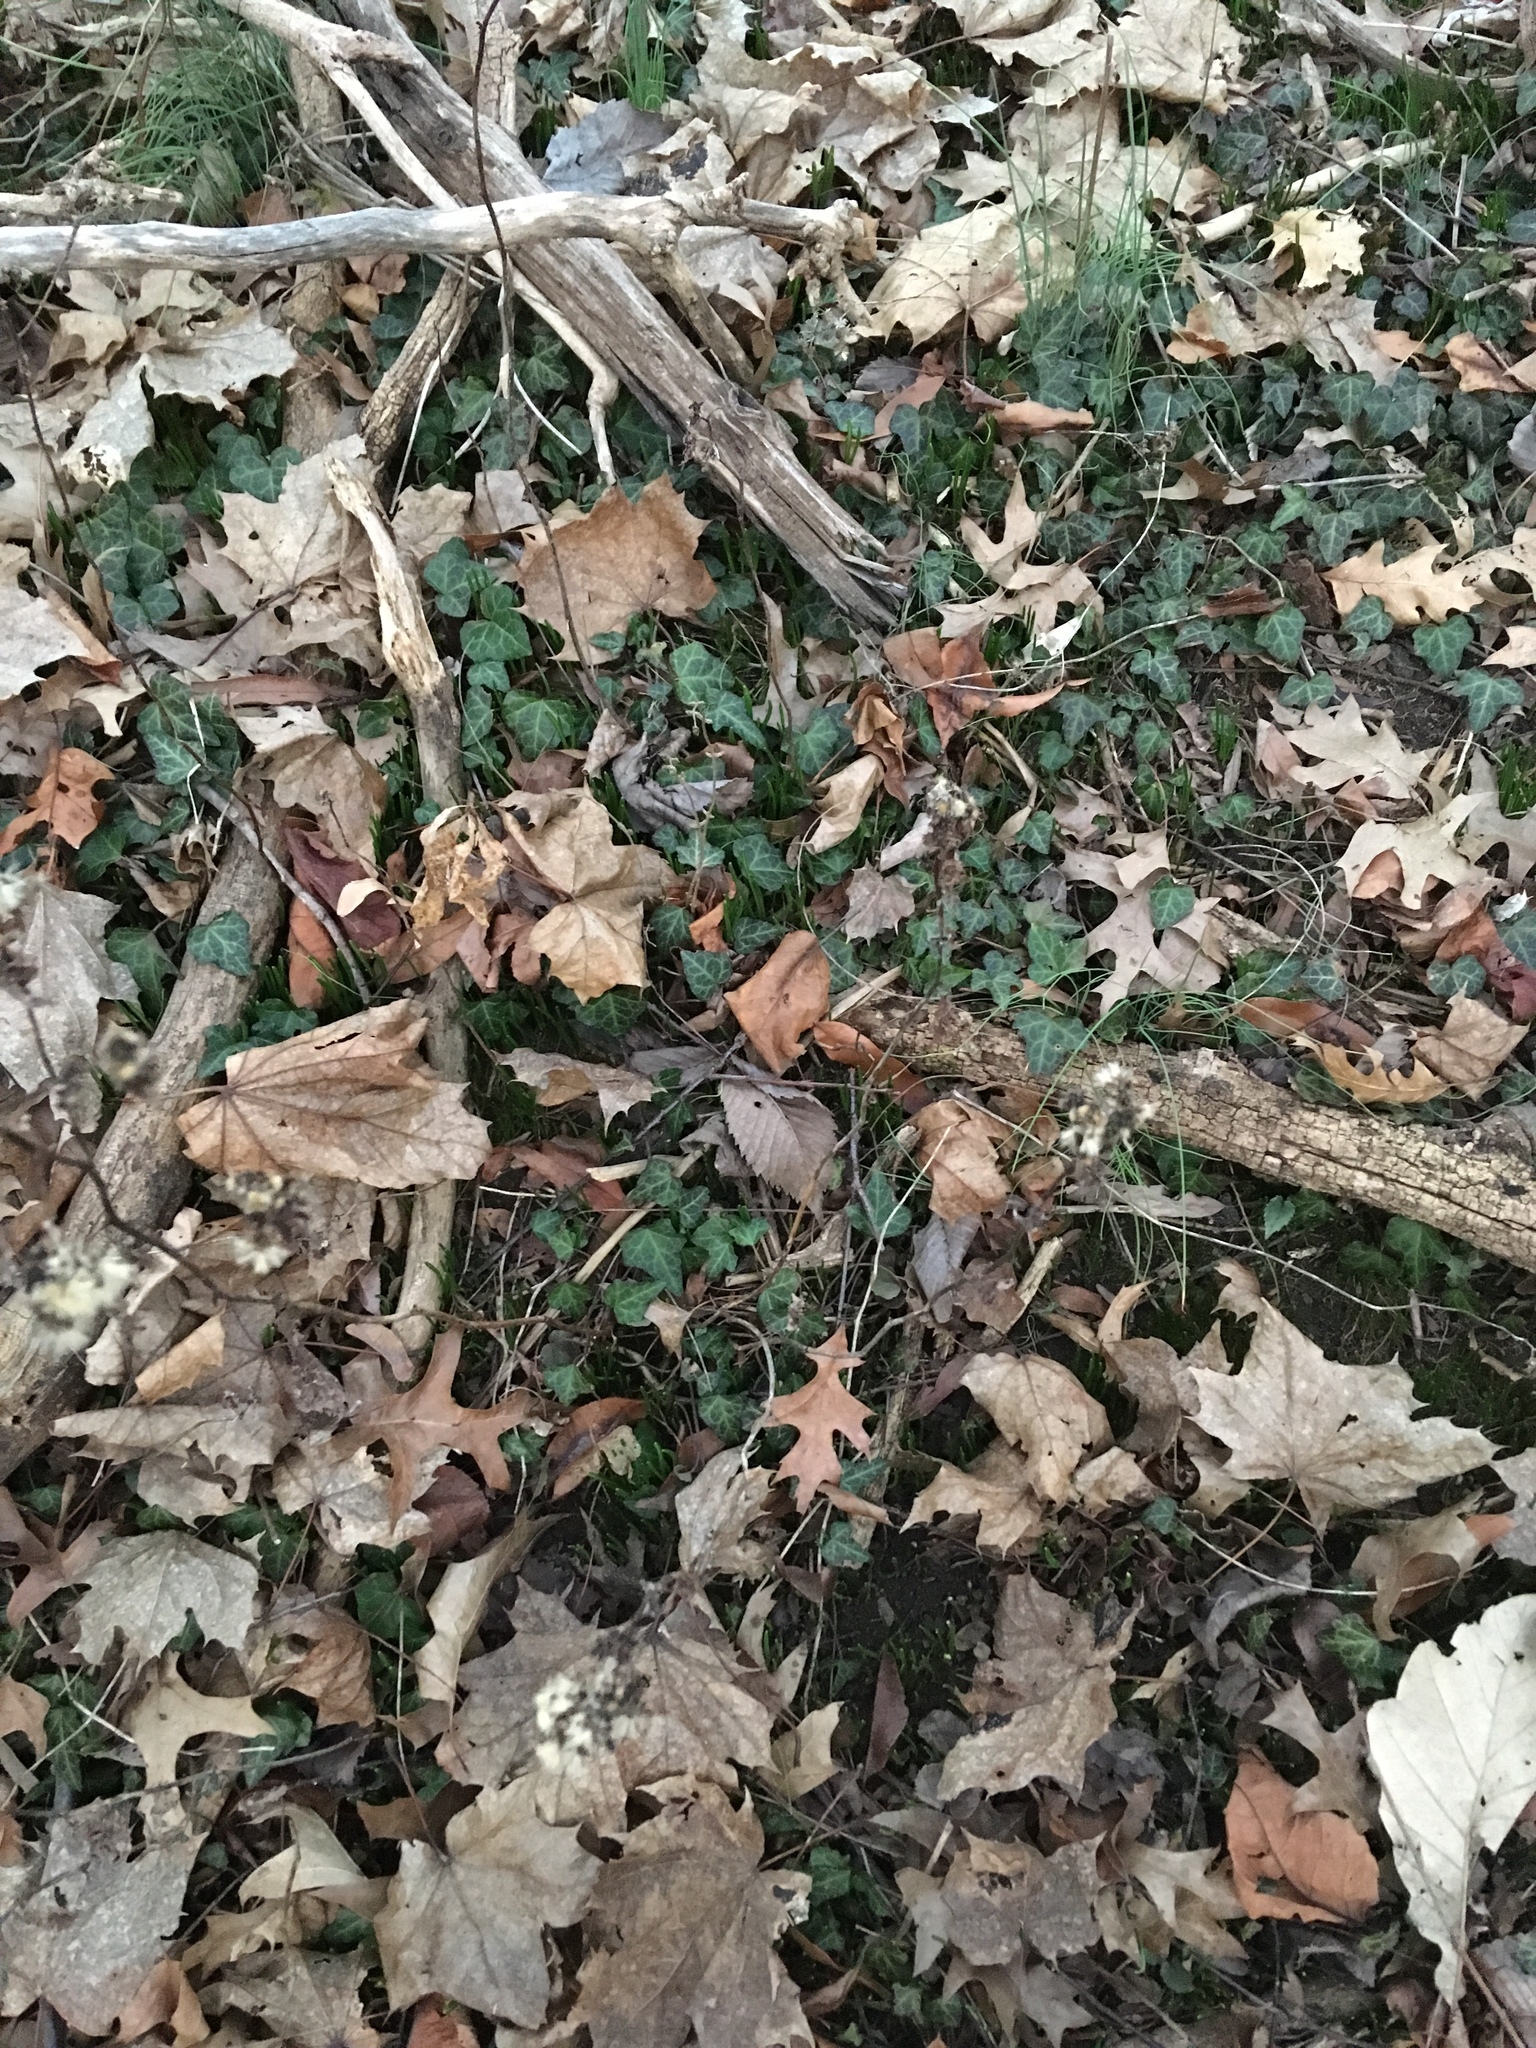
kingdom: Plantae
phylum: Tracheophyta
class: Magnoliopsida
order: Apiales
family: Araliaceae
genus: Hedera
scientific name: Hedera helix
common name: Ivy
